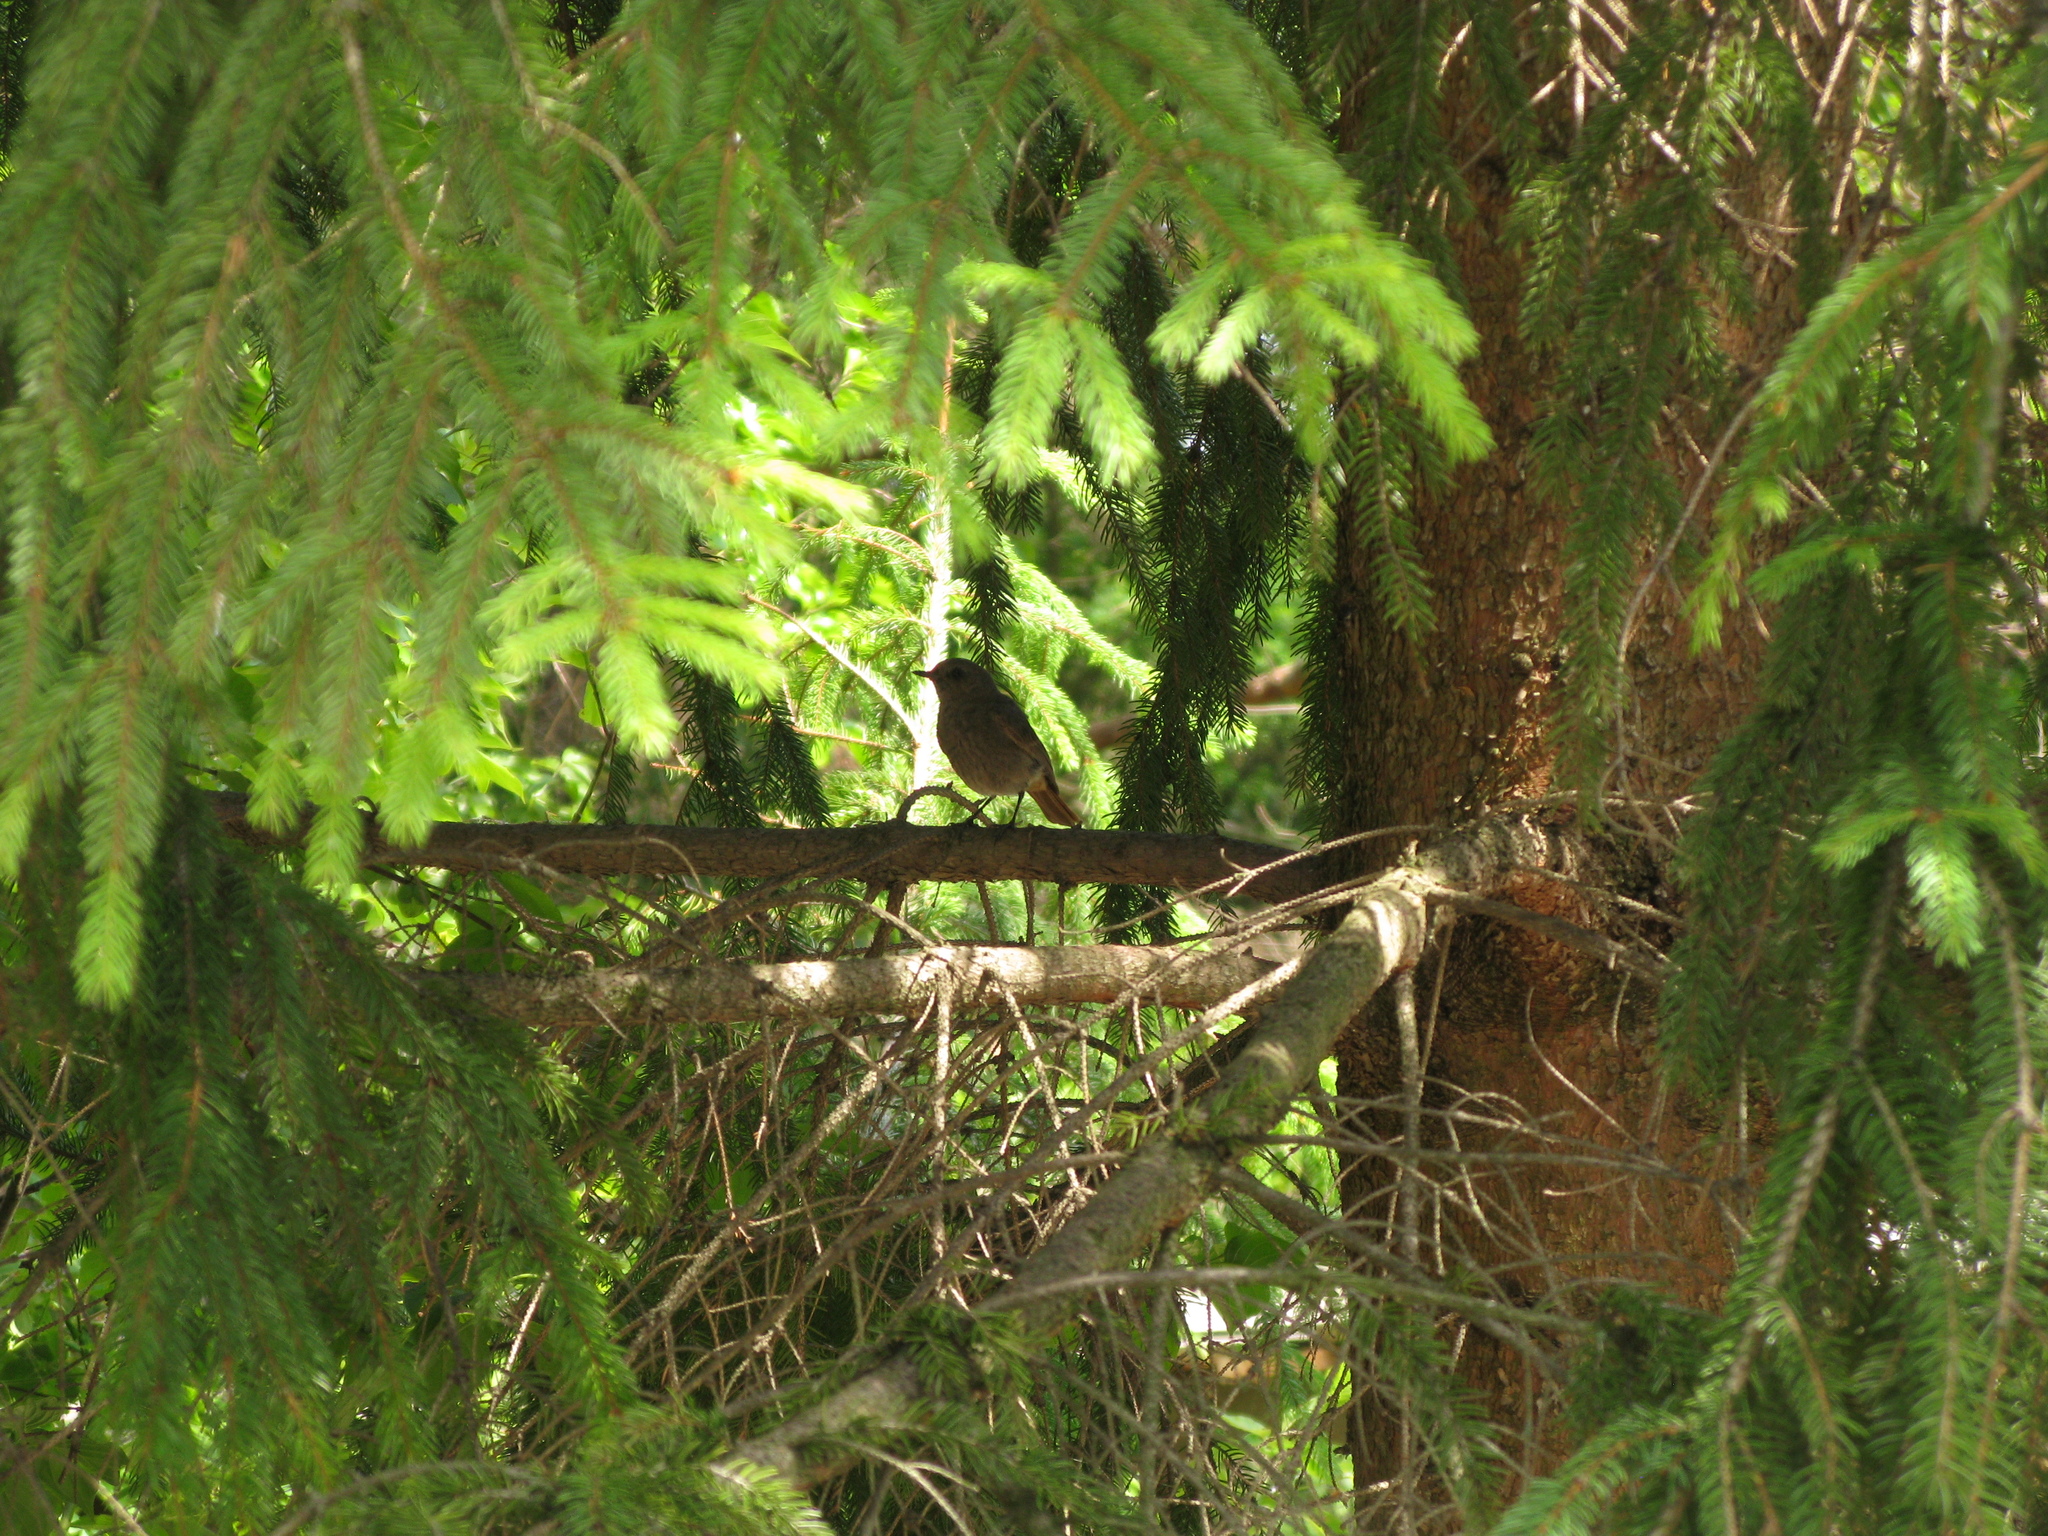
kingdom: Animalia
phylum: Chordata
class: Aves
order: Passeriformes
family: Muscicapidae
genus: Phoenicurus
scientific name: Phoenicurus ochruros
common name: Black redstart
